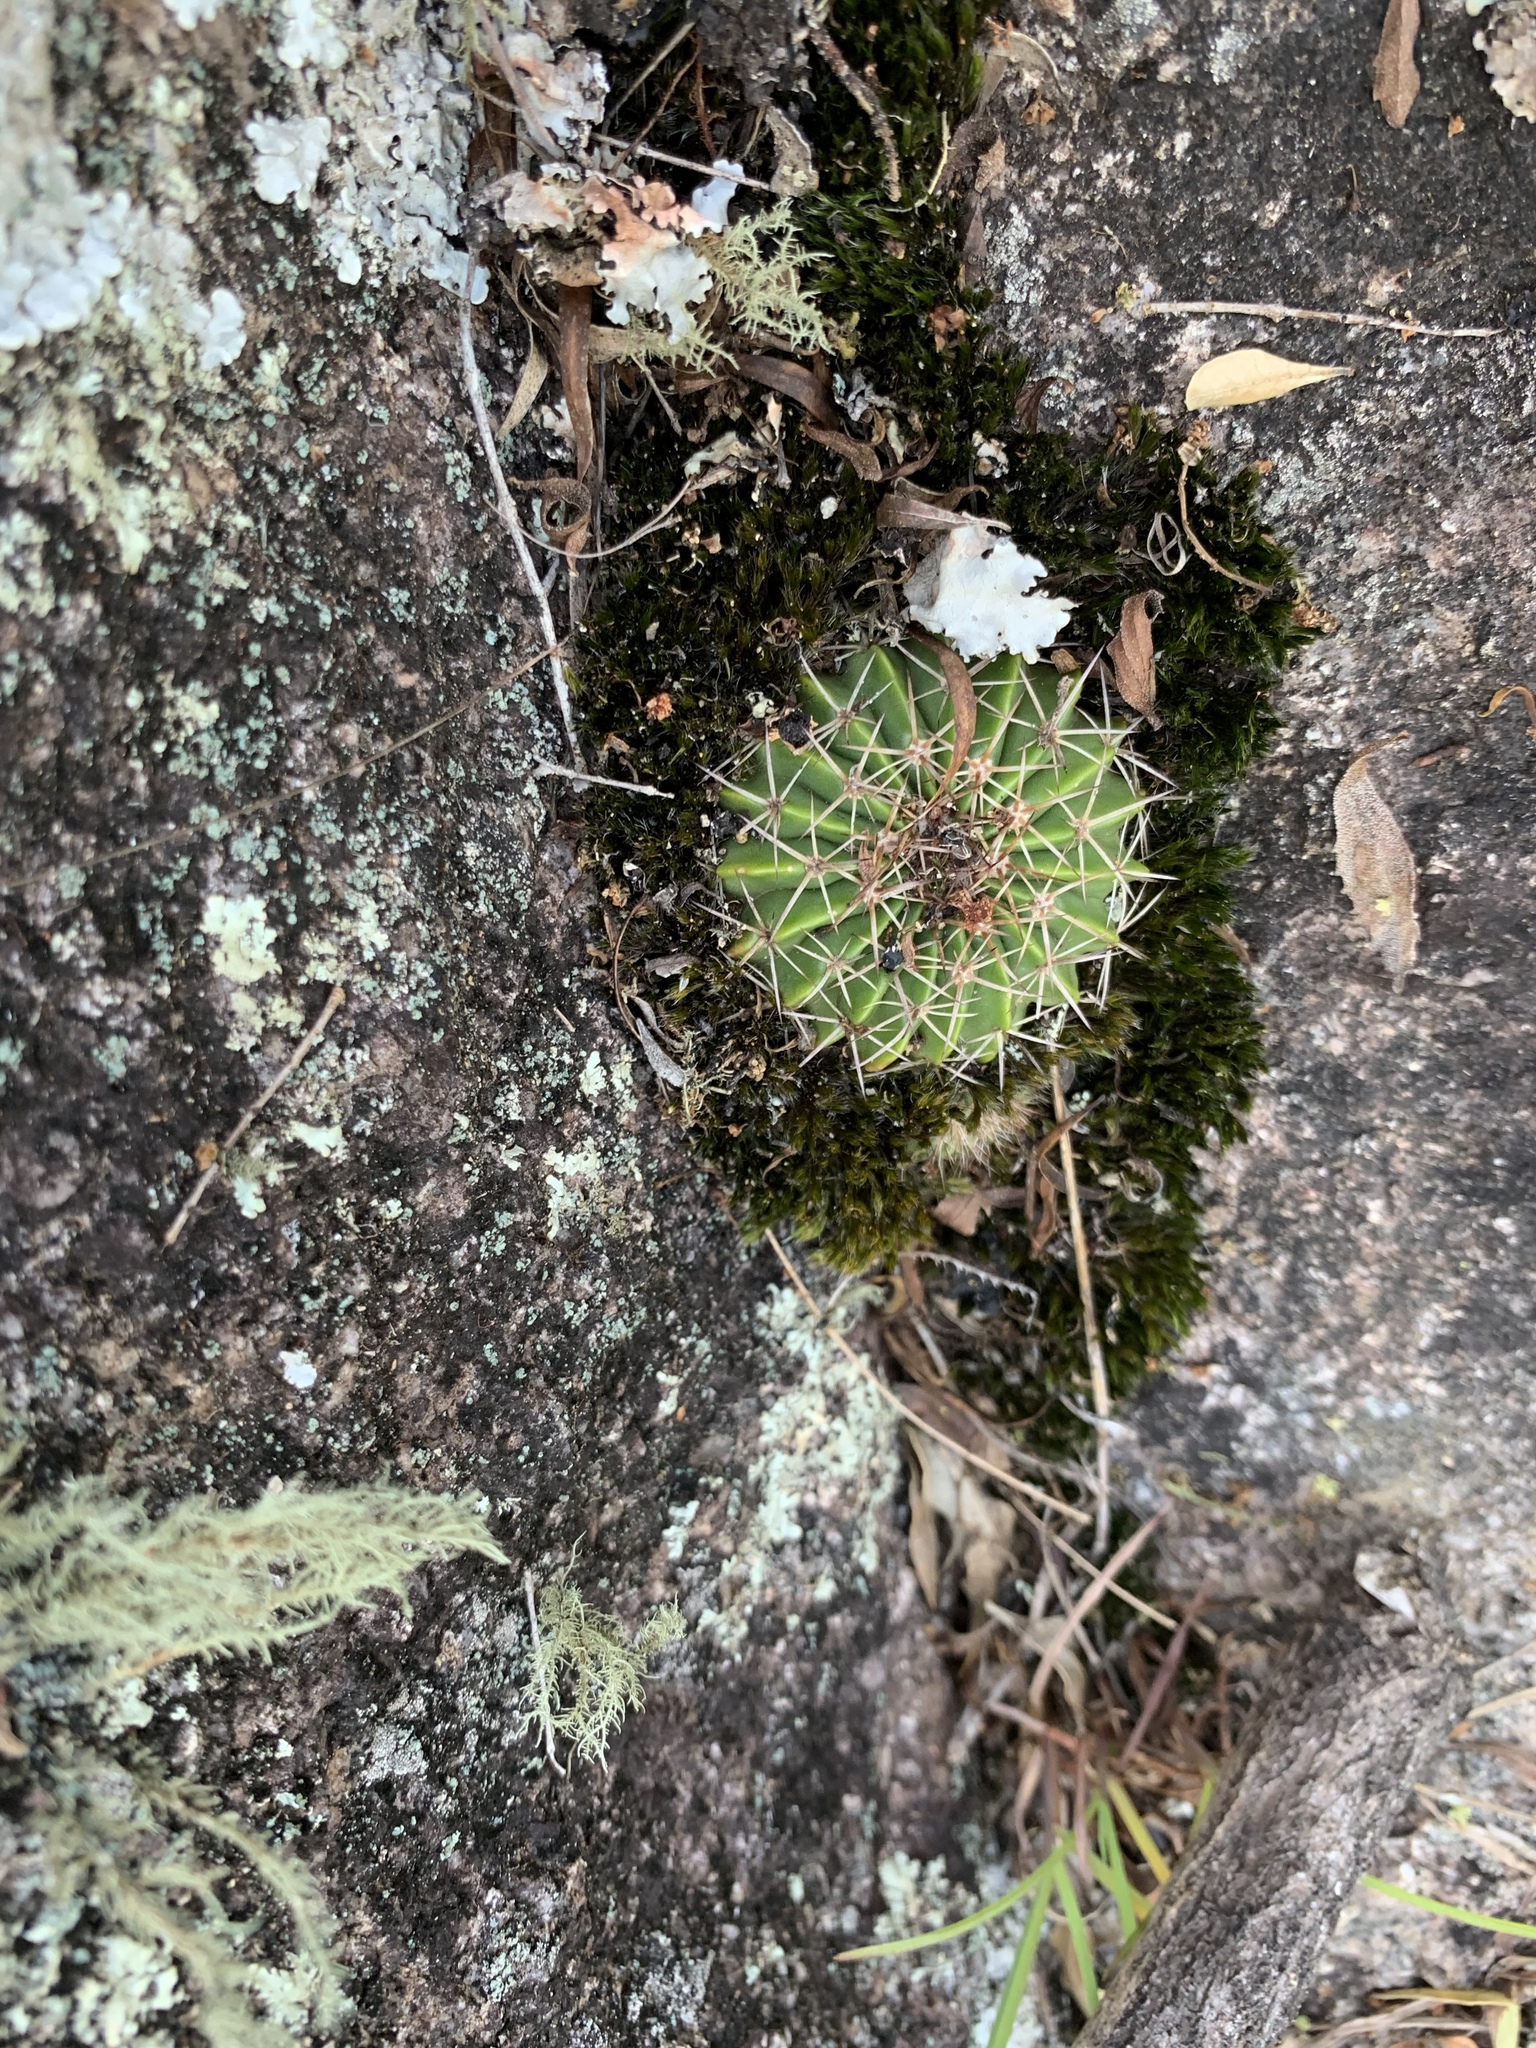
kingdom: Plantae
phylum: Tracheophyta
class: Magnoliopsida
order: Caryophyllales
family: Cactaceae
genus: Parodia
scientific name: Parodia erinacea
